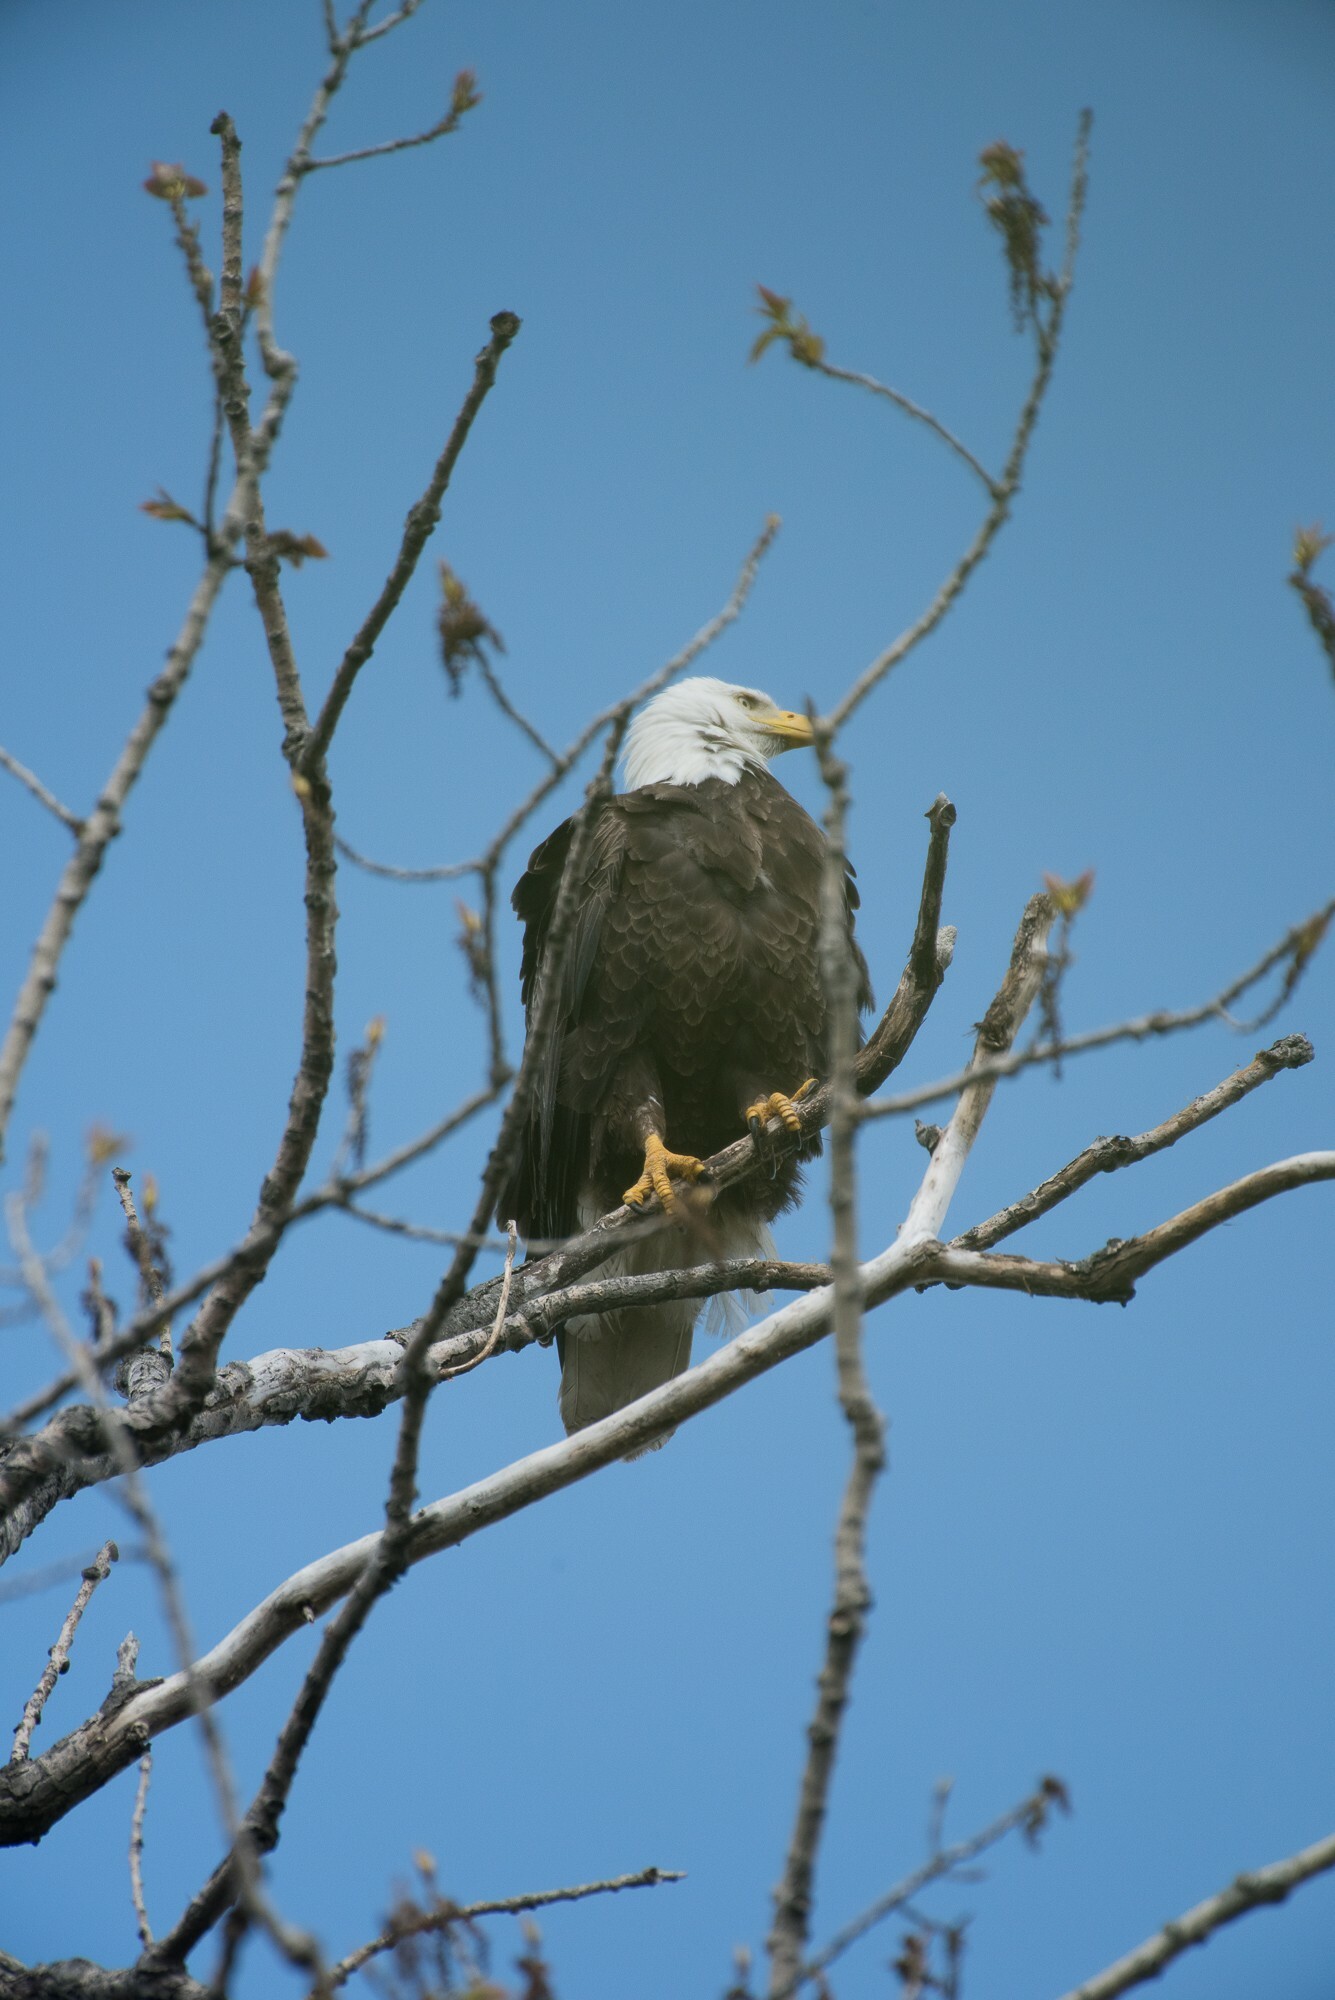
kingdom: Animalia
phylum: Chordata
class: Aves
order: Accipitriformes
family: Accipitridae
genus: Haliaeetus
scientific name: Haliaeetus leucocephalus
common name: Bald eagle
